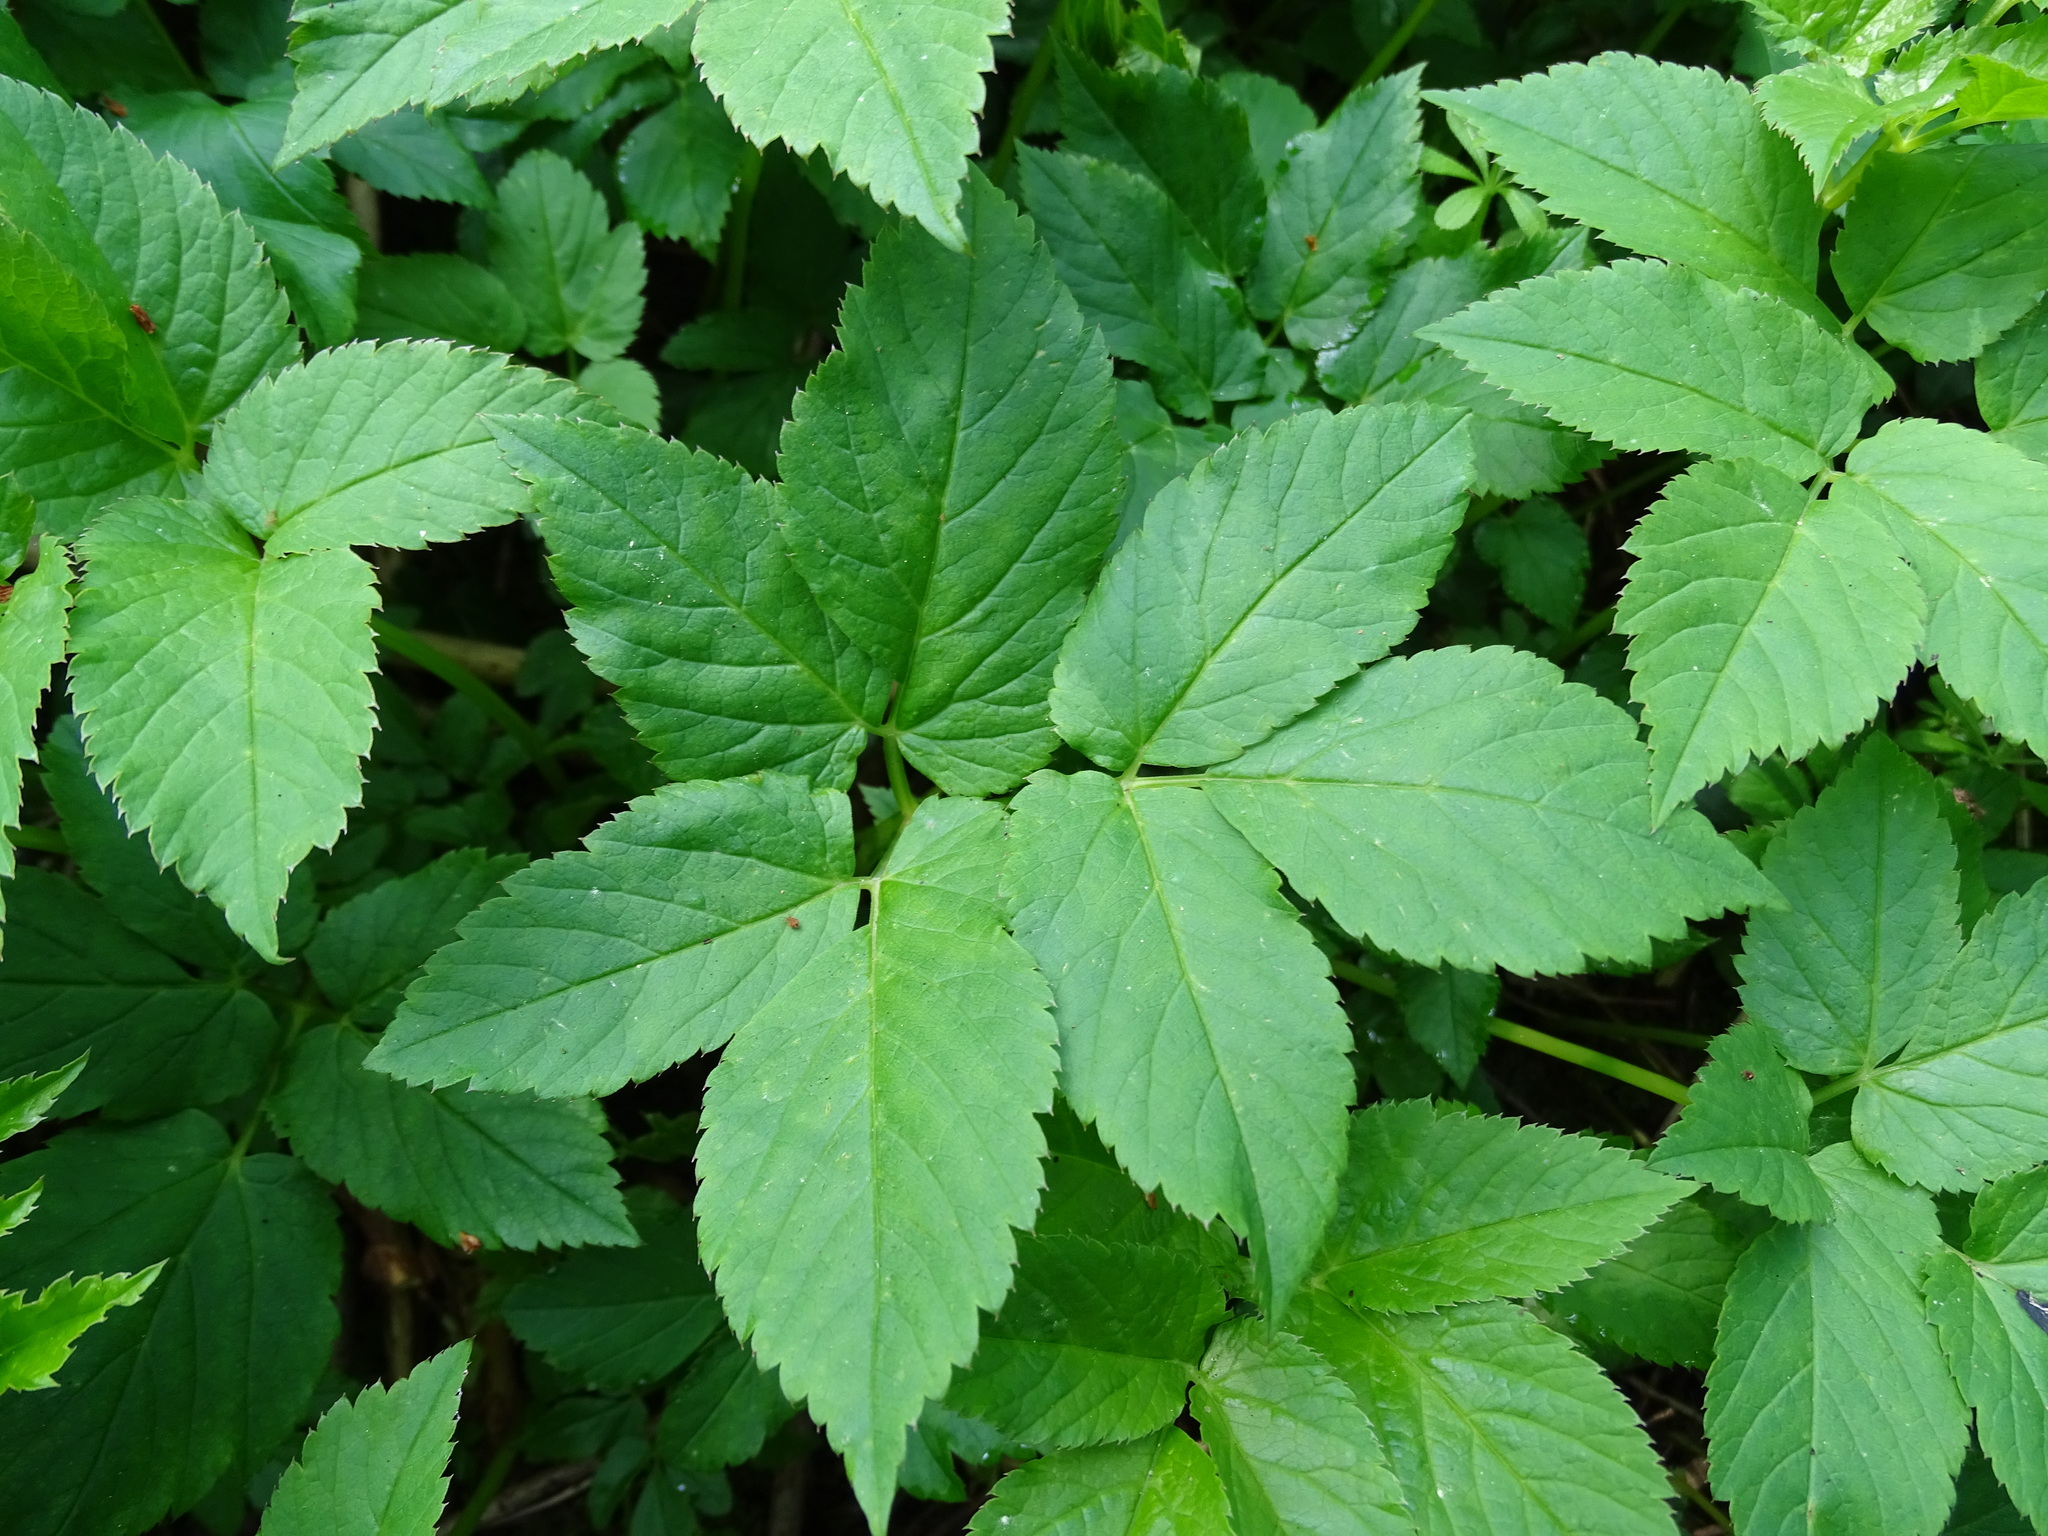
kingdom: Plantae
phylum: Tracheophyta
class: Magnoliopsida
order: Apiales
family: Apiaceae
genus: Aegopodium
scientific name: Aegopodium podagraria
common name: Ground-elder
